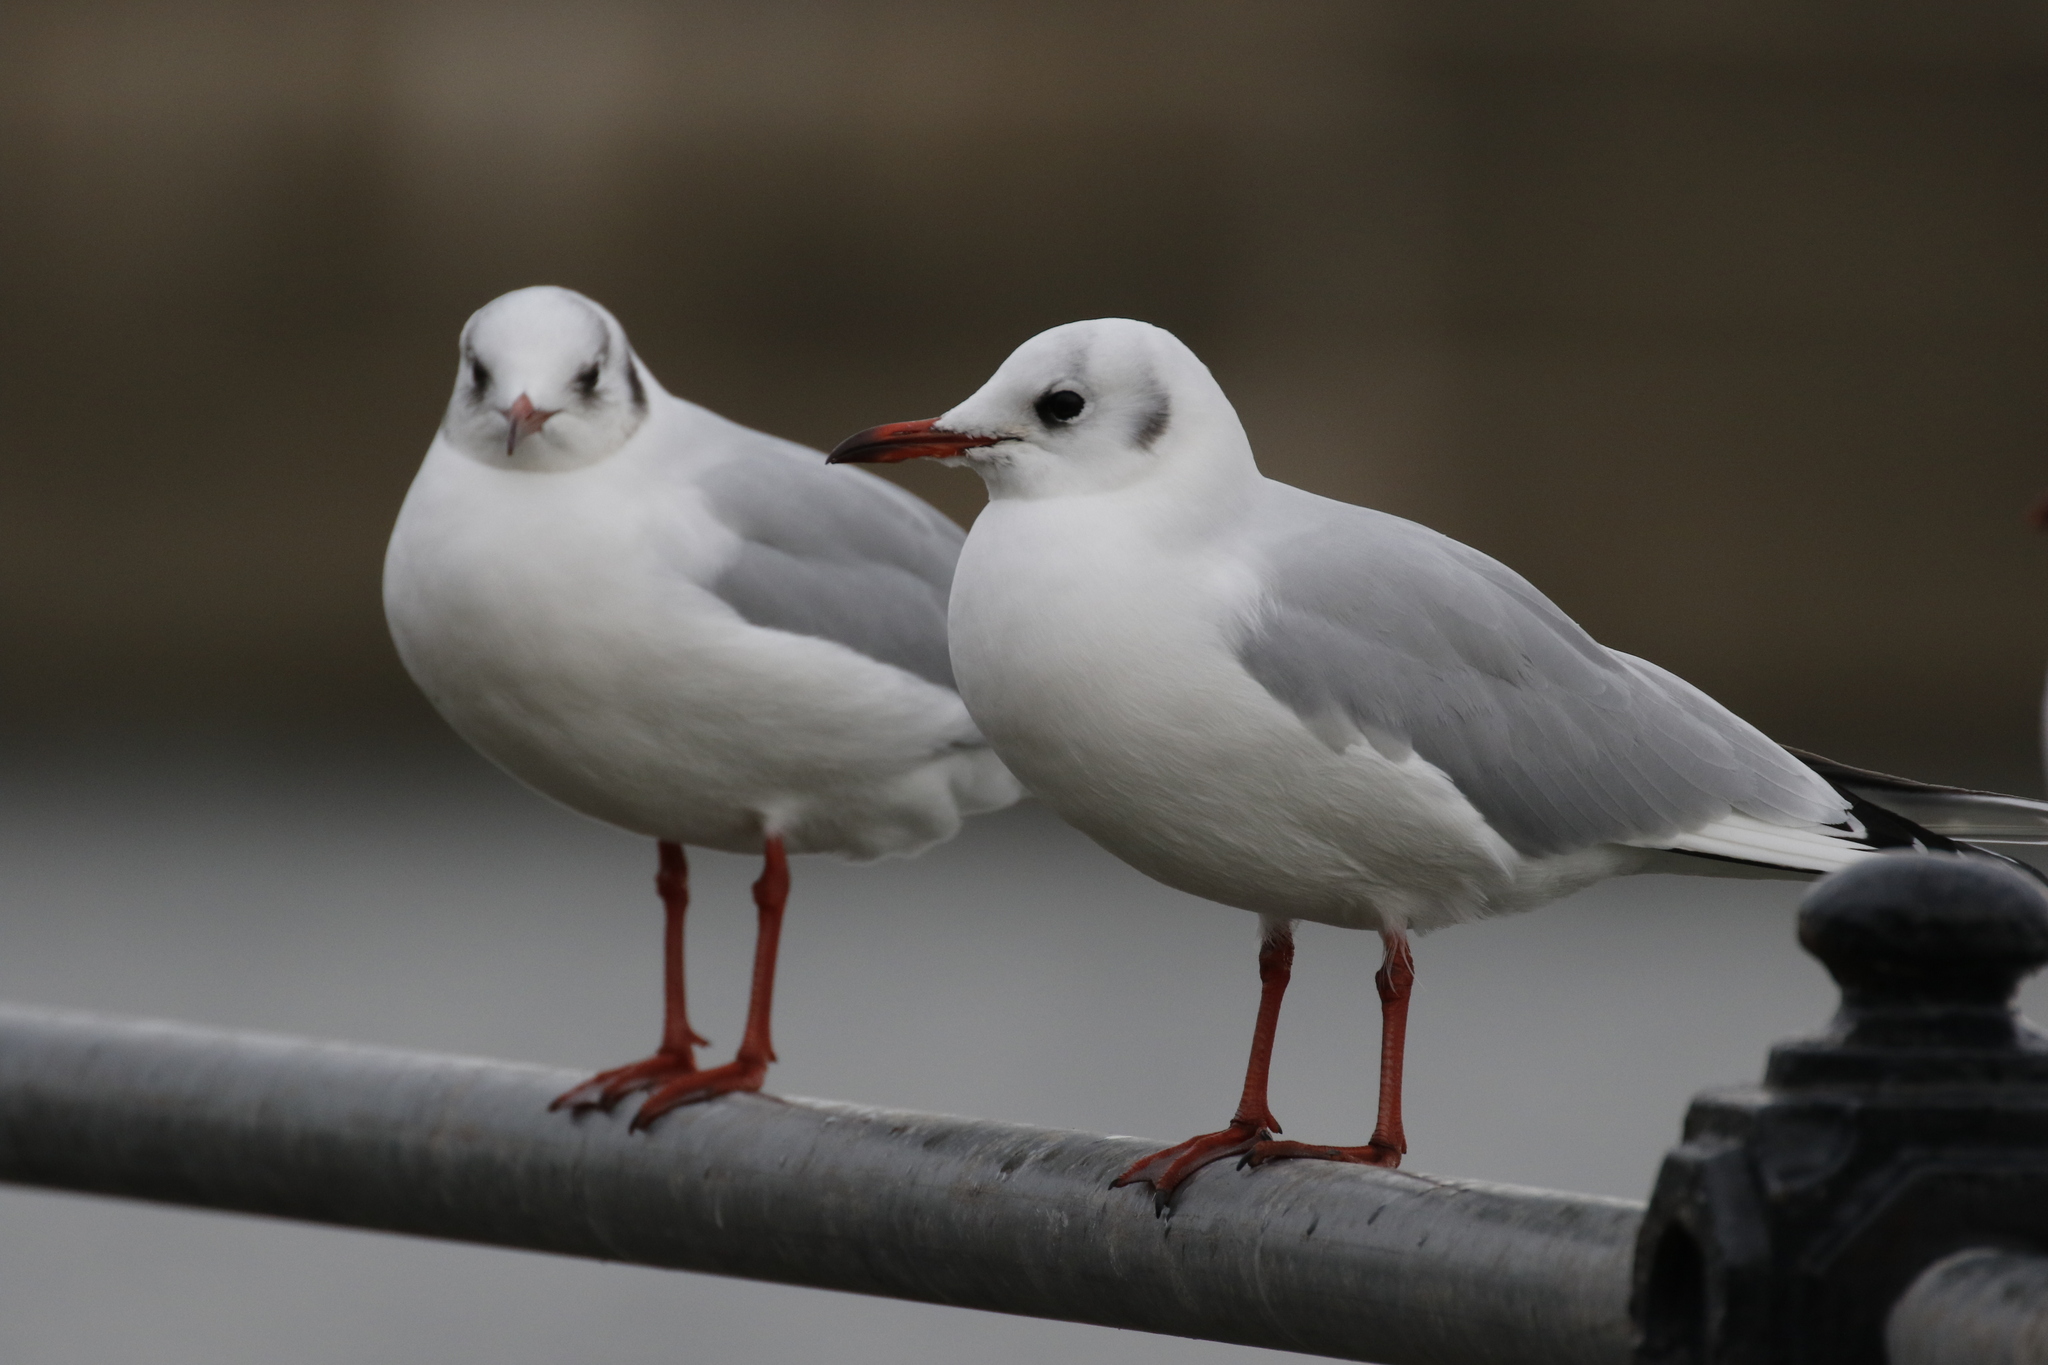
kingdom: Animalia
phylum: Chordata
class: Aves
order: Charadriiformes
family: Laridae
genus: Chroicocephalus
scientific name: Chroicocephalus ridibundus
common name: Black-headed gull
